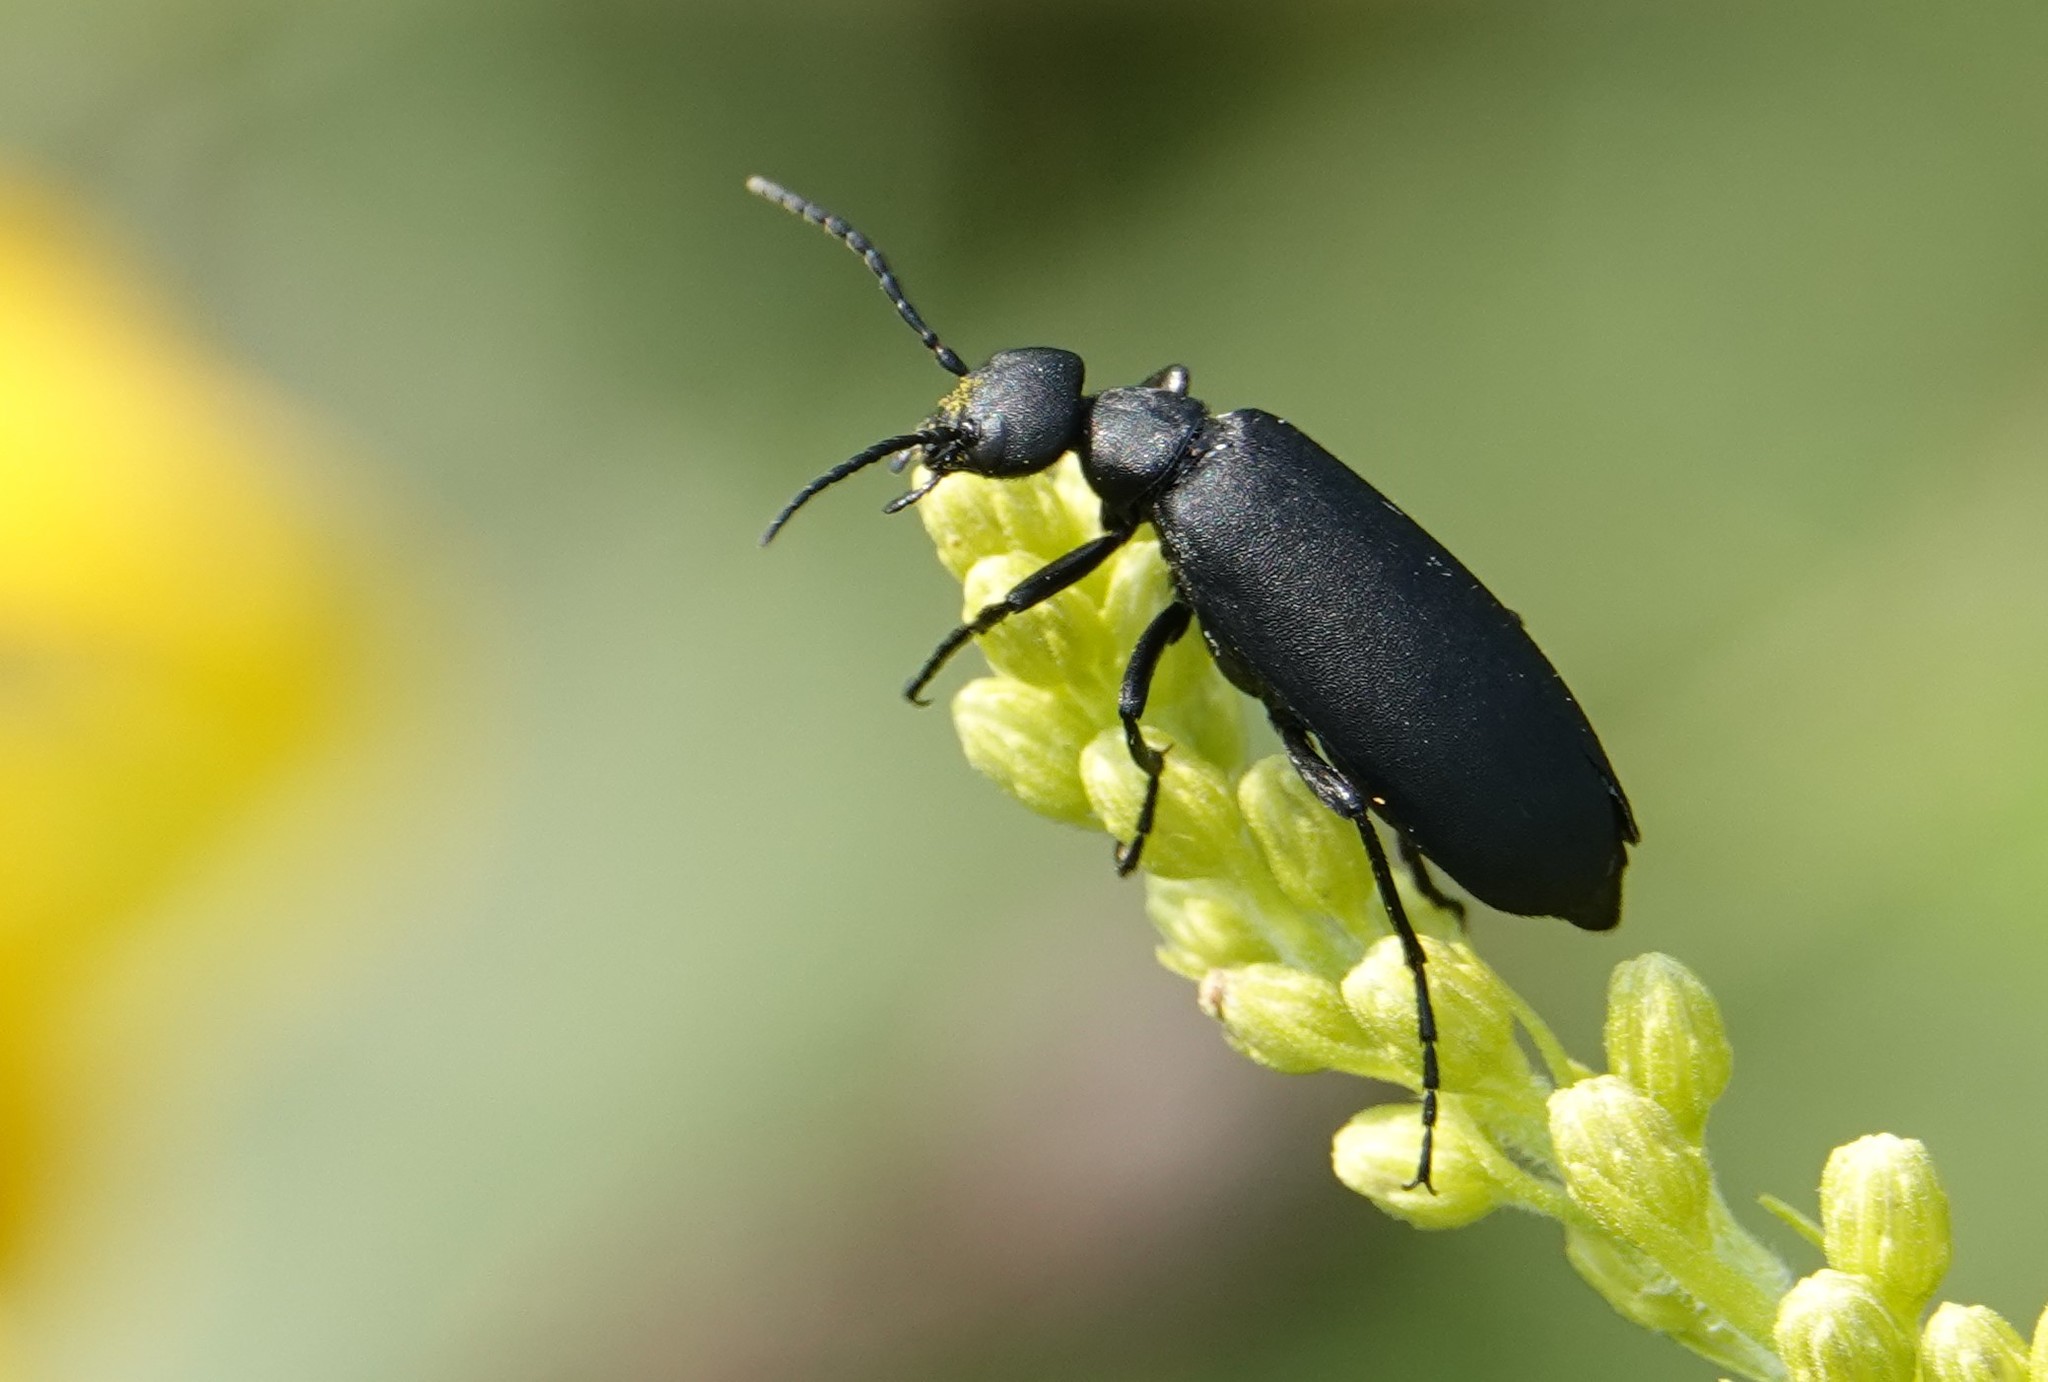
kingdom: Animalia
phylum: Arthropoda
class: Insecta
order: Coleoptera
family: Meloidae
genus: Epicauta
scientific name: Epicauta pensylvanica
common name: Black blister beetle
